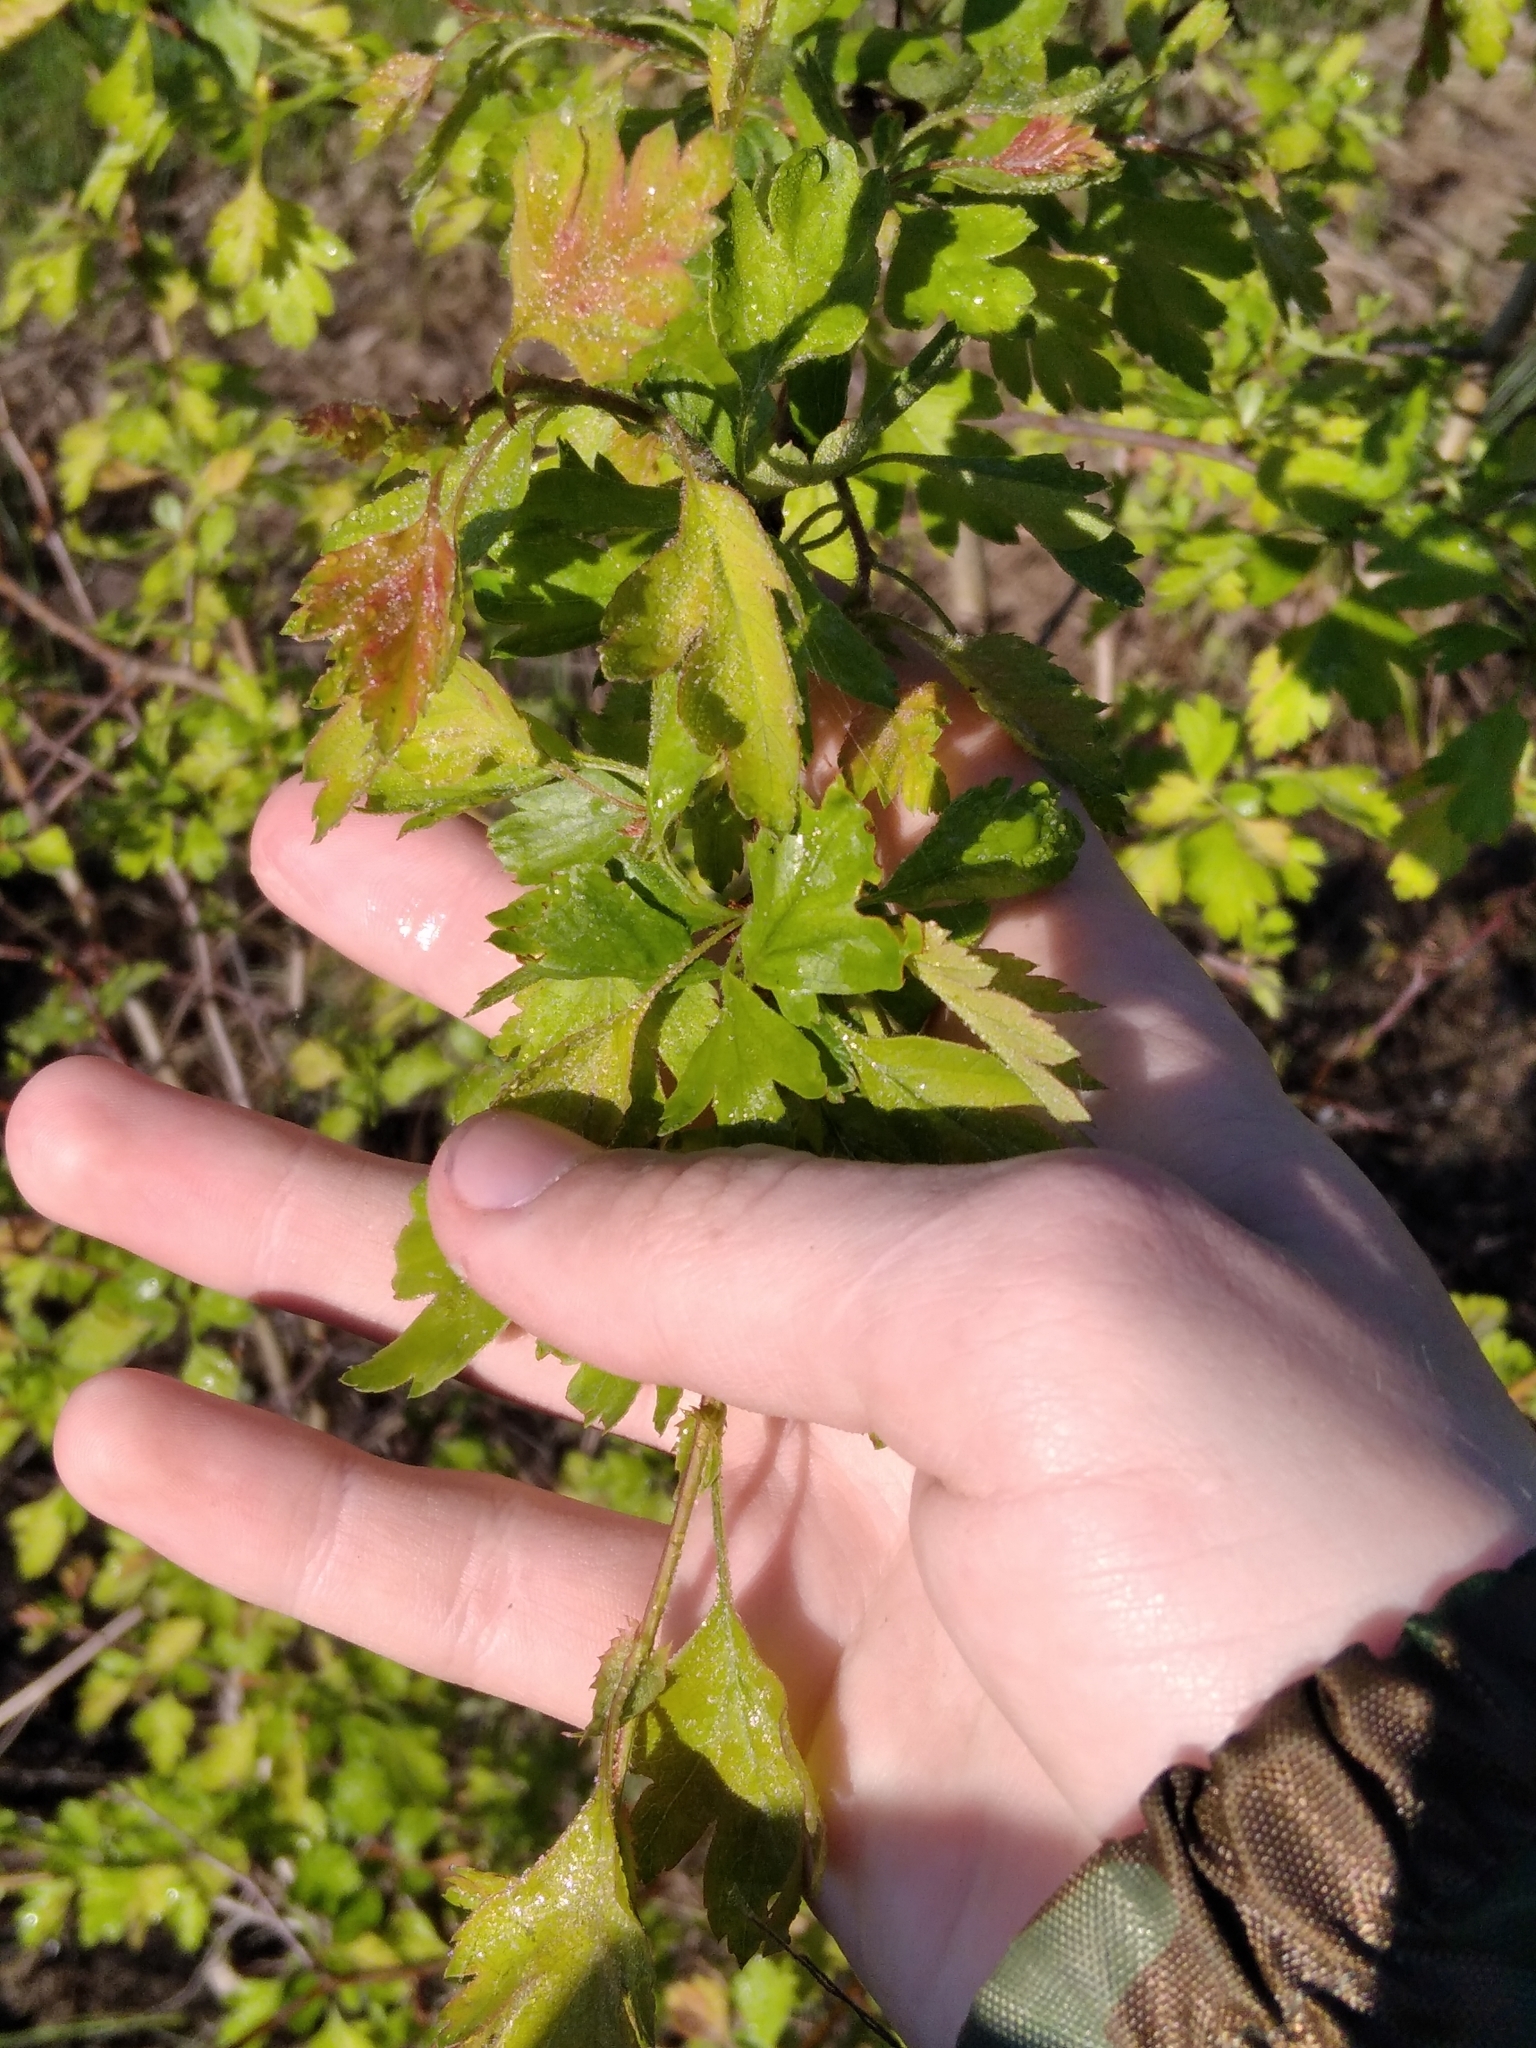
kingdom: Plantae
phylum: Tracheophyta
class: Magnoliopsida
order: Rosales
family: Rosaceae
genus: Crataegus
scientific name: Crataegus monogyna
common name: Hawthorn
